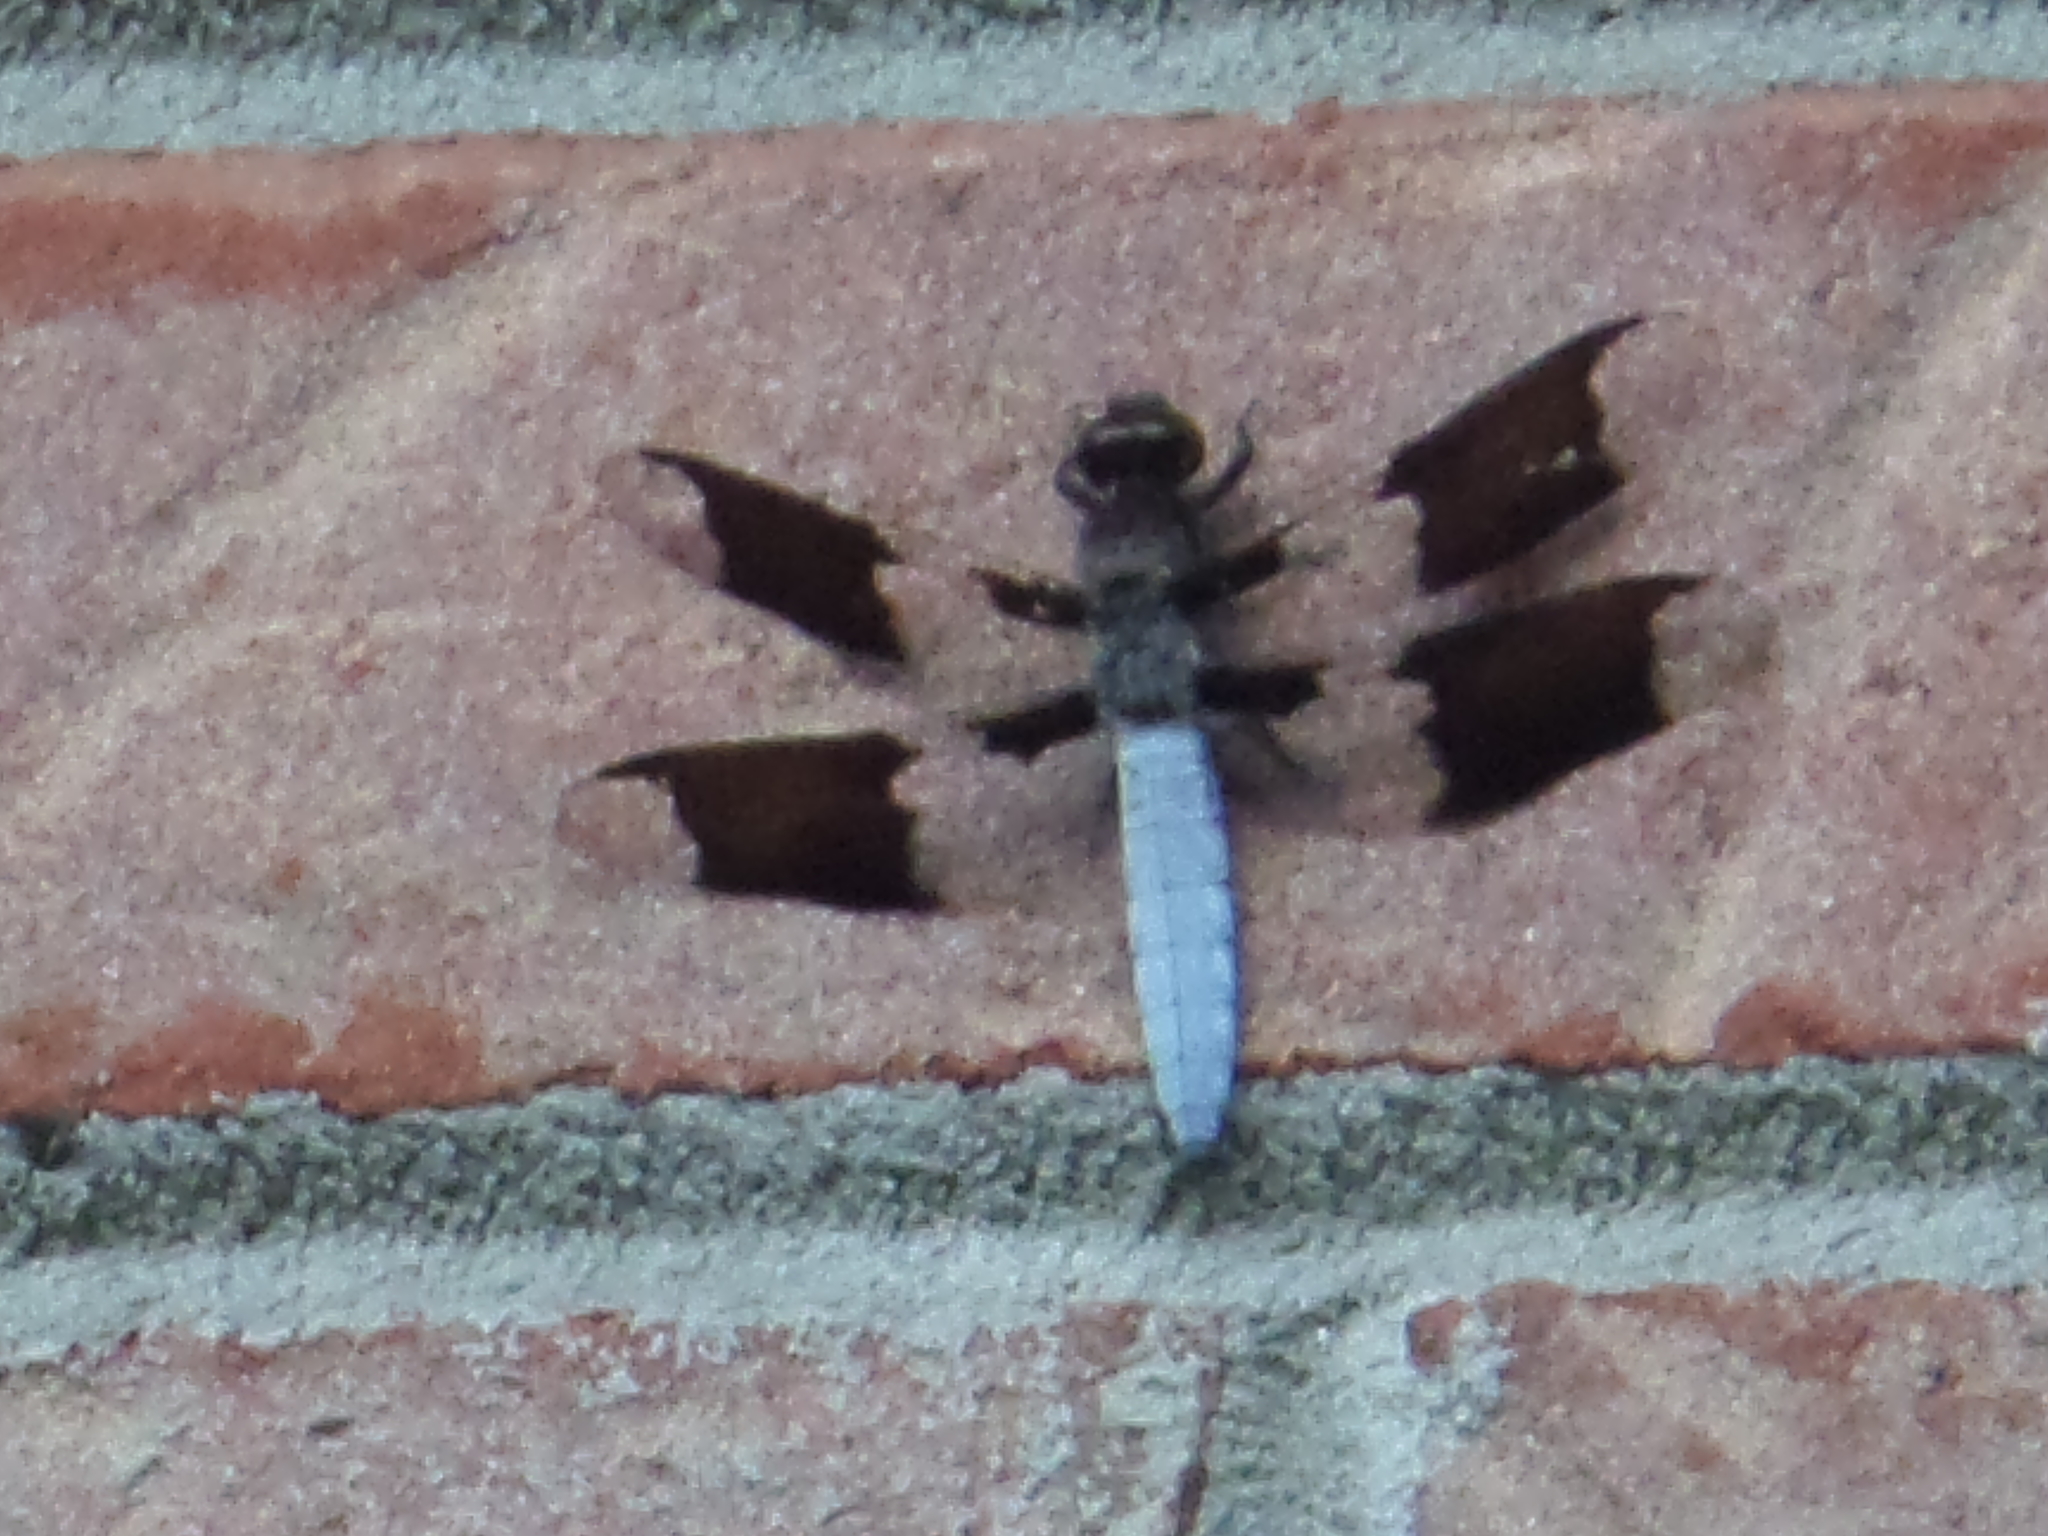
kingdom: Animalia
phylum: Arthropoda
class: Insecta
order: Odonata
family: Libellulidae
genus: Plathemis
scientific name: Plathemis lydia
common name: Common whitetail
